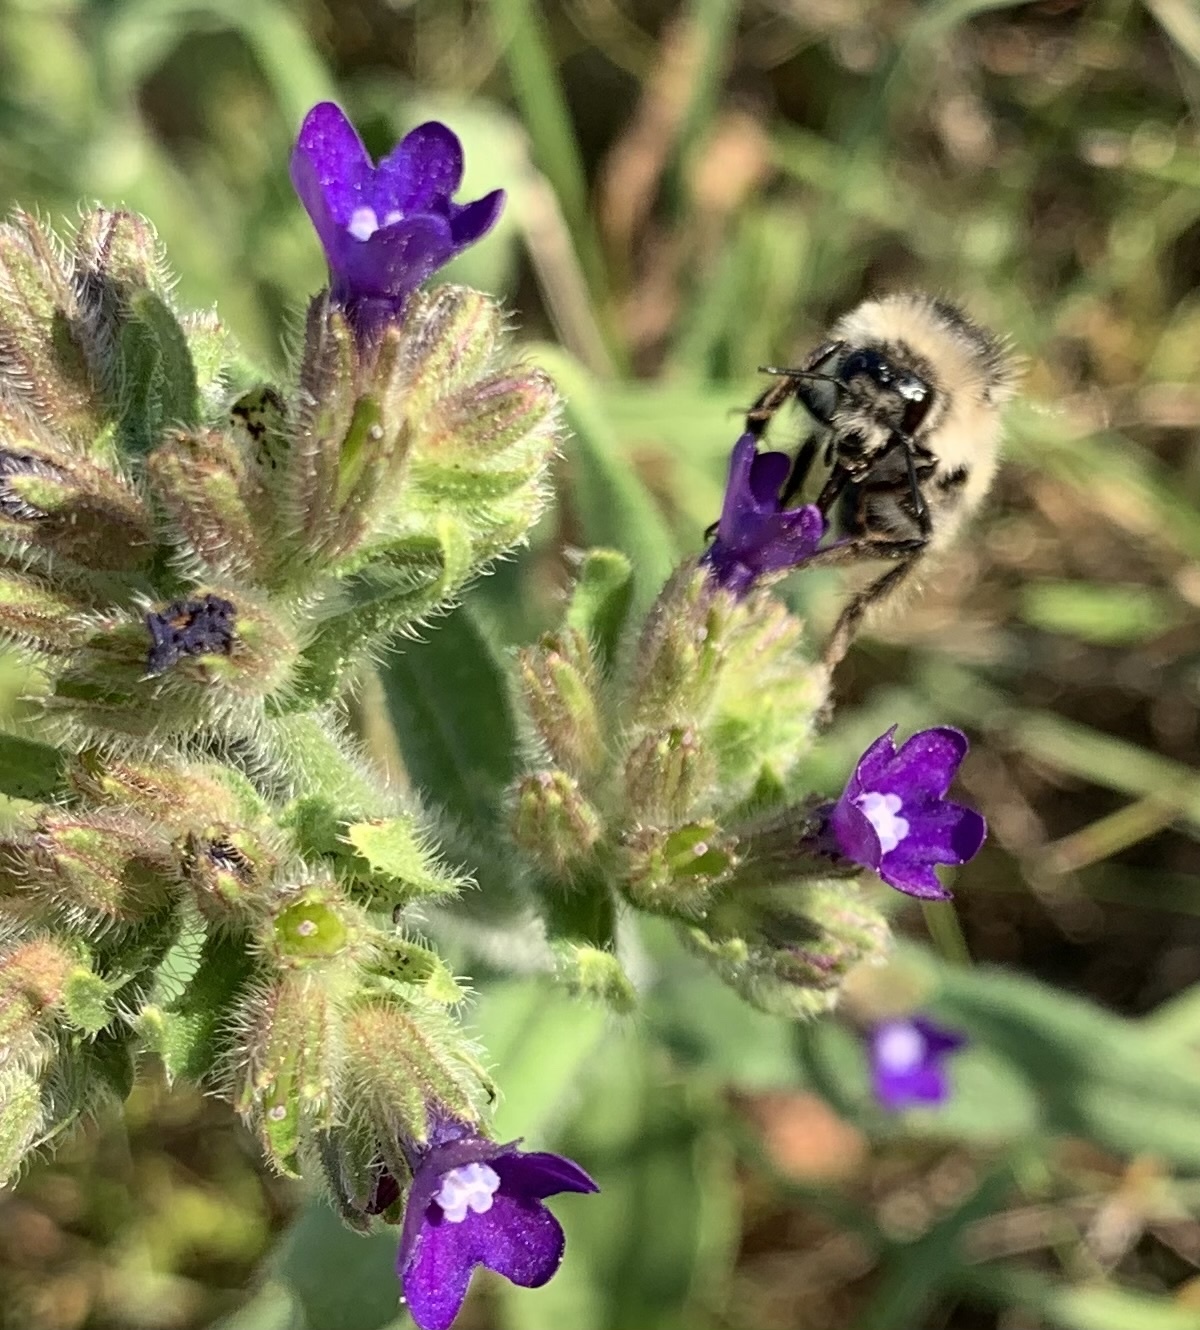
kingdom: Animalia
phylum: Arthropoda
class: Insecta
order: Hymenoptera
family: Apidae
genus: Bombus
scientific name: Bombus sylvarum
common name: Shrill carder bee
